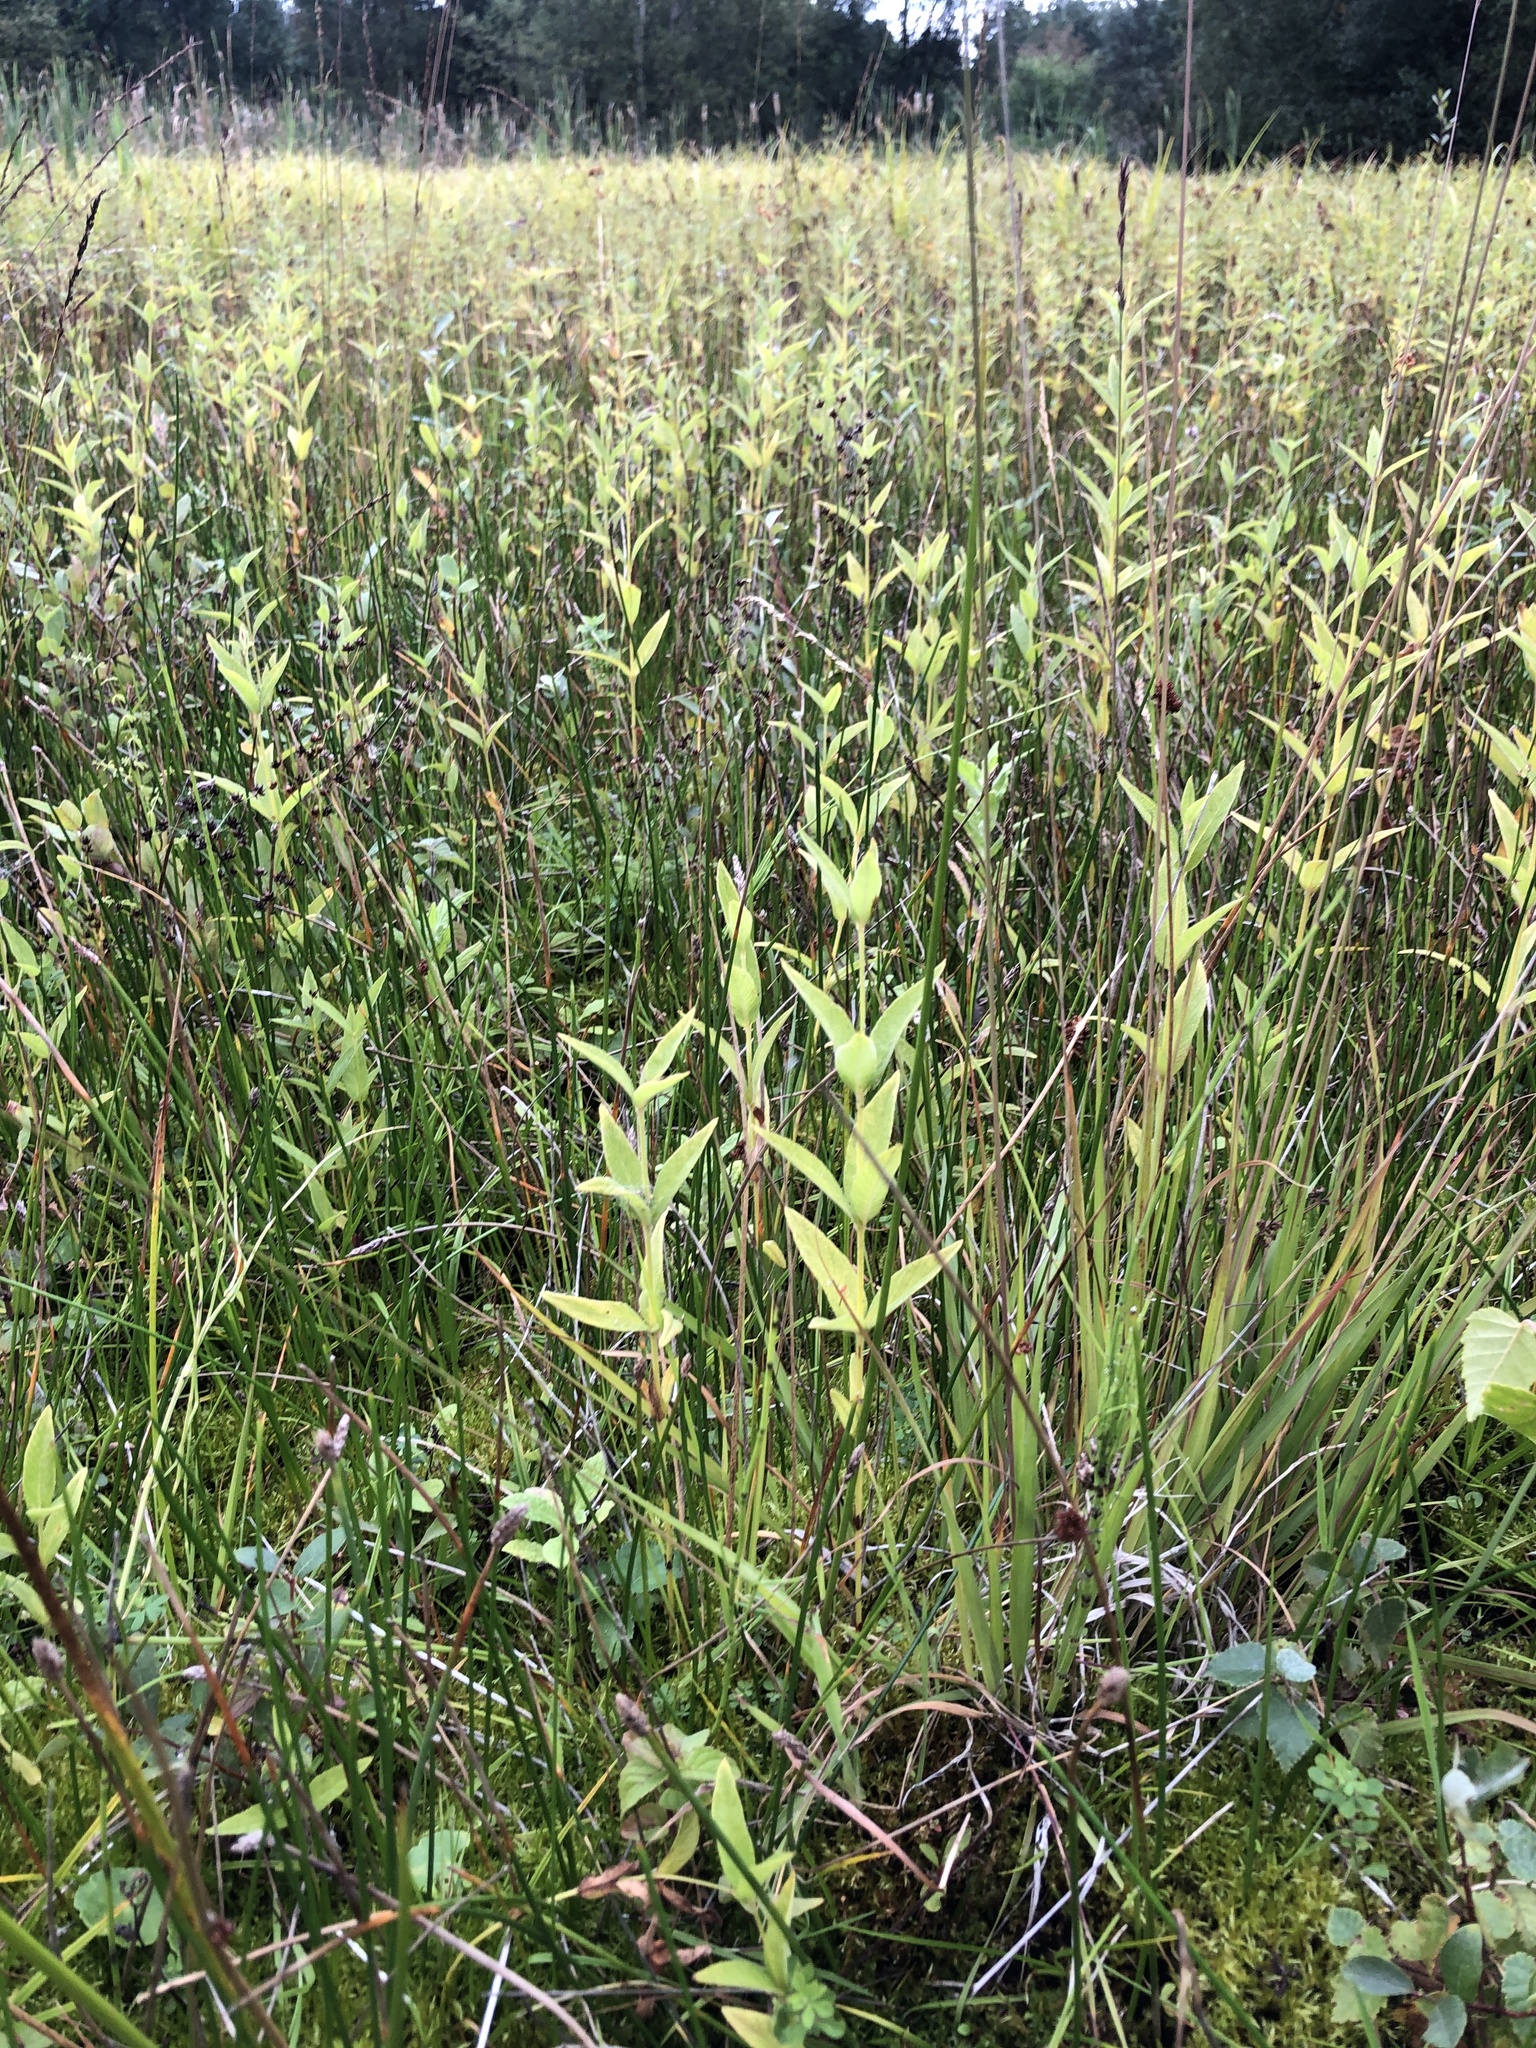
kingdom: Plantae
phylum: Tracheophyta
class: Magnoliopsida
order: Ericales
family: Primulaceae
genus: Lysimachia
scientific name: Lysimachia vulgaris
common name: Yellow loosestrife
